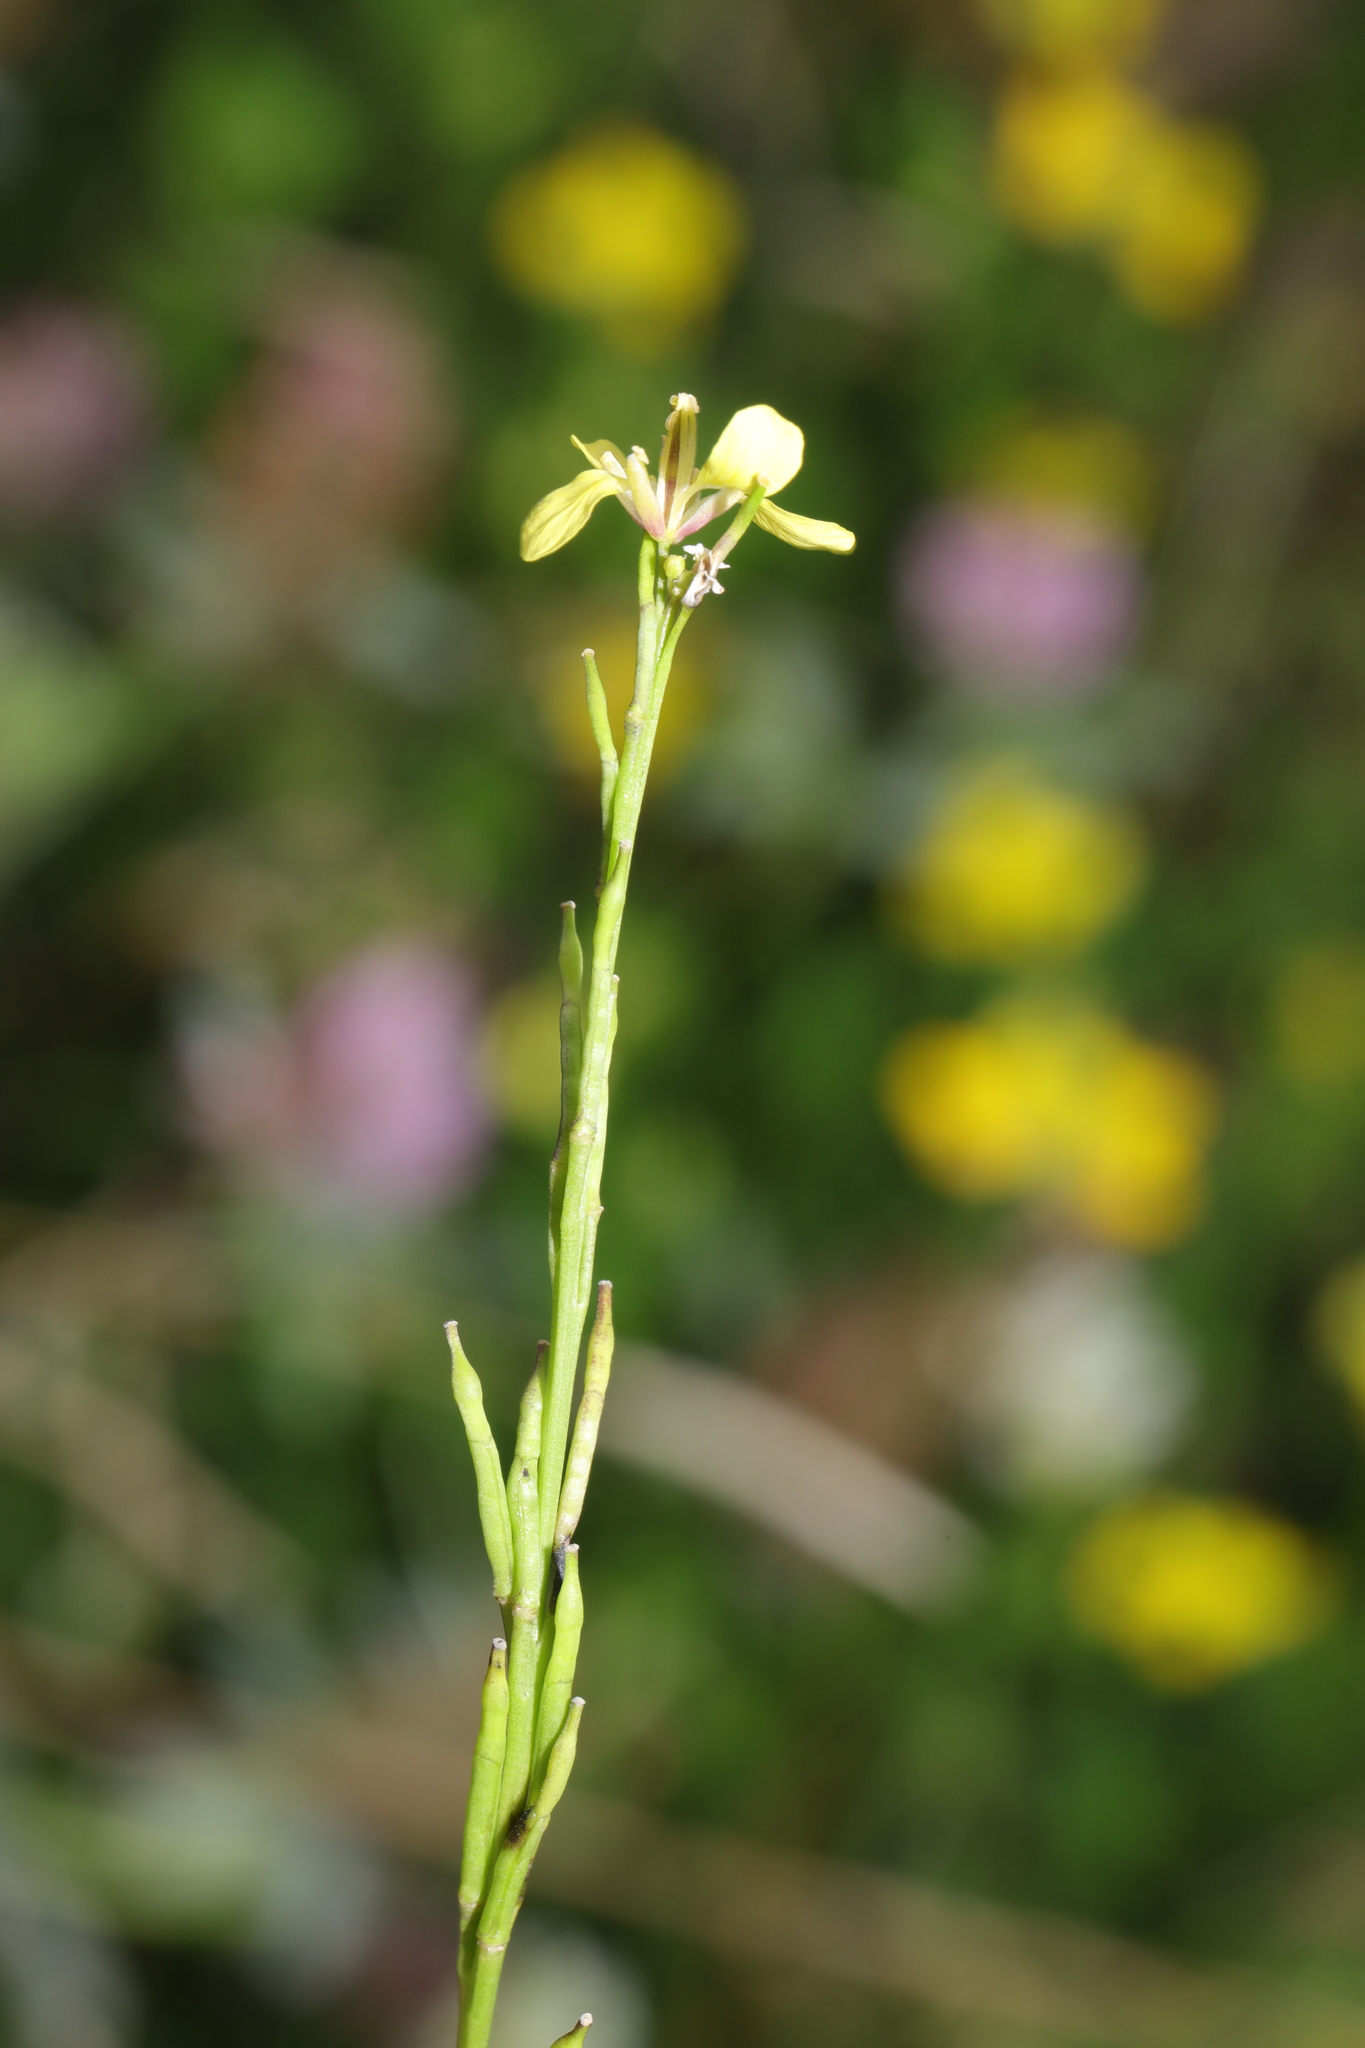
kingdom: Plantae
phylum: Tracheophyta
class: Magnoliopsida
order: Brassicales
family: Brassicaceae
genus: Hirschfeldia
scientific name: Hirschfeldia incana
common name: Hoary mustard
